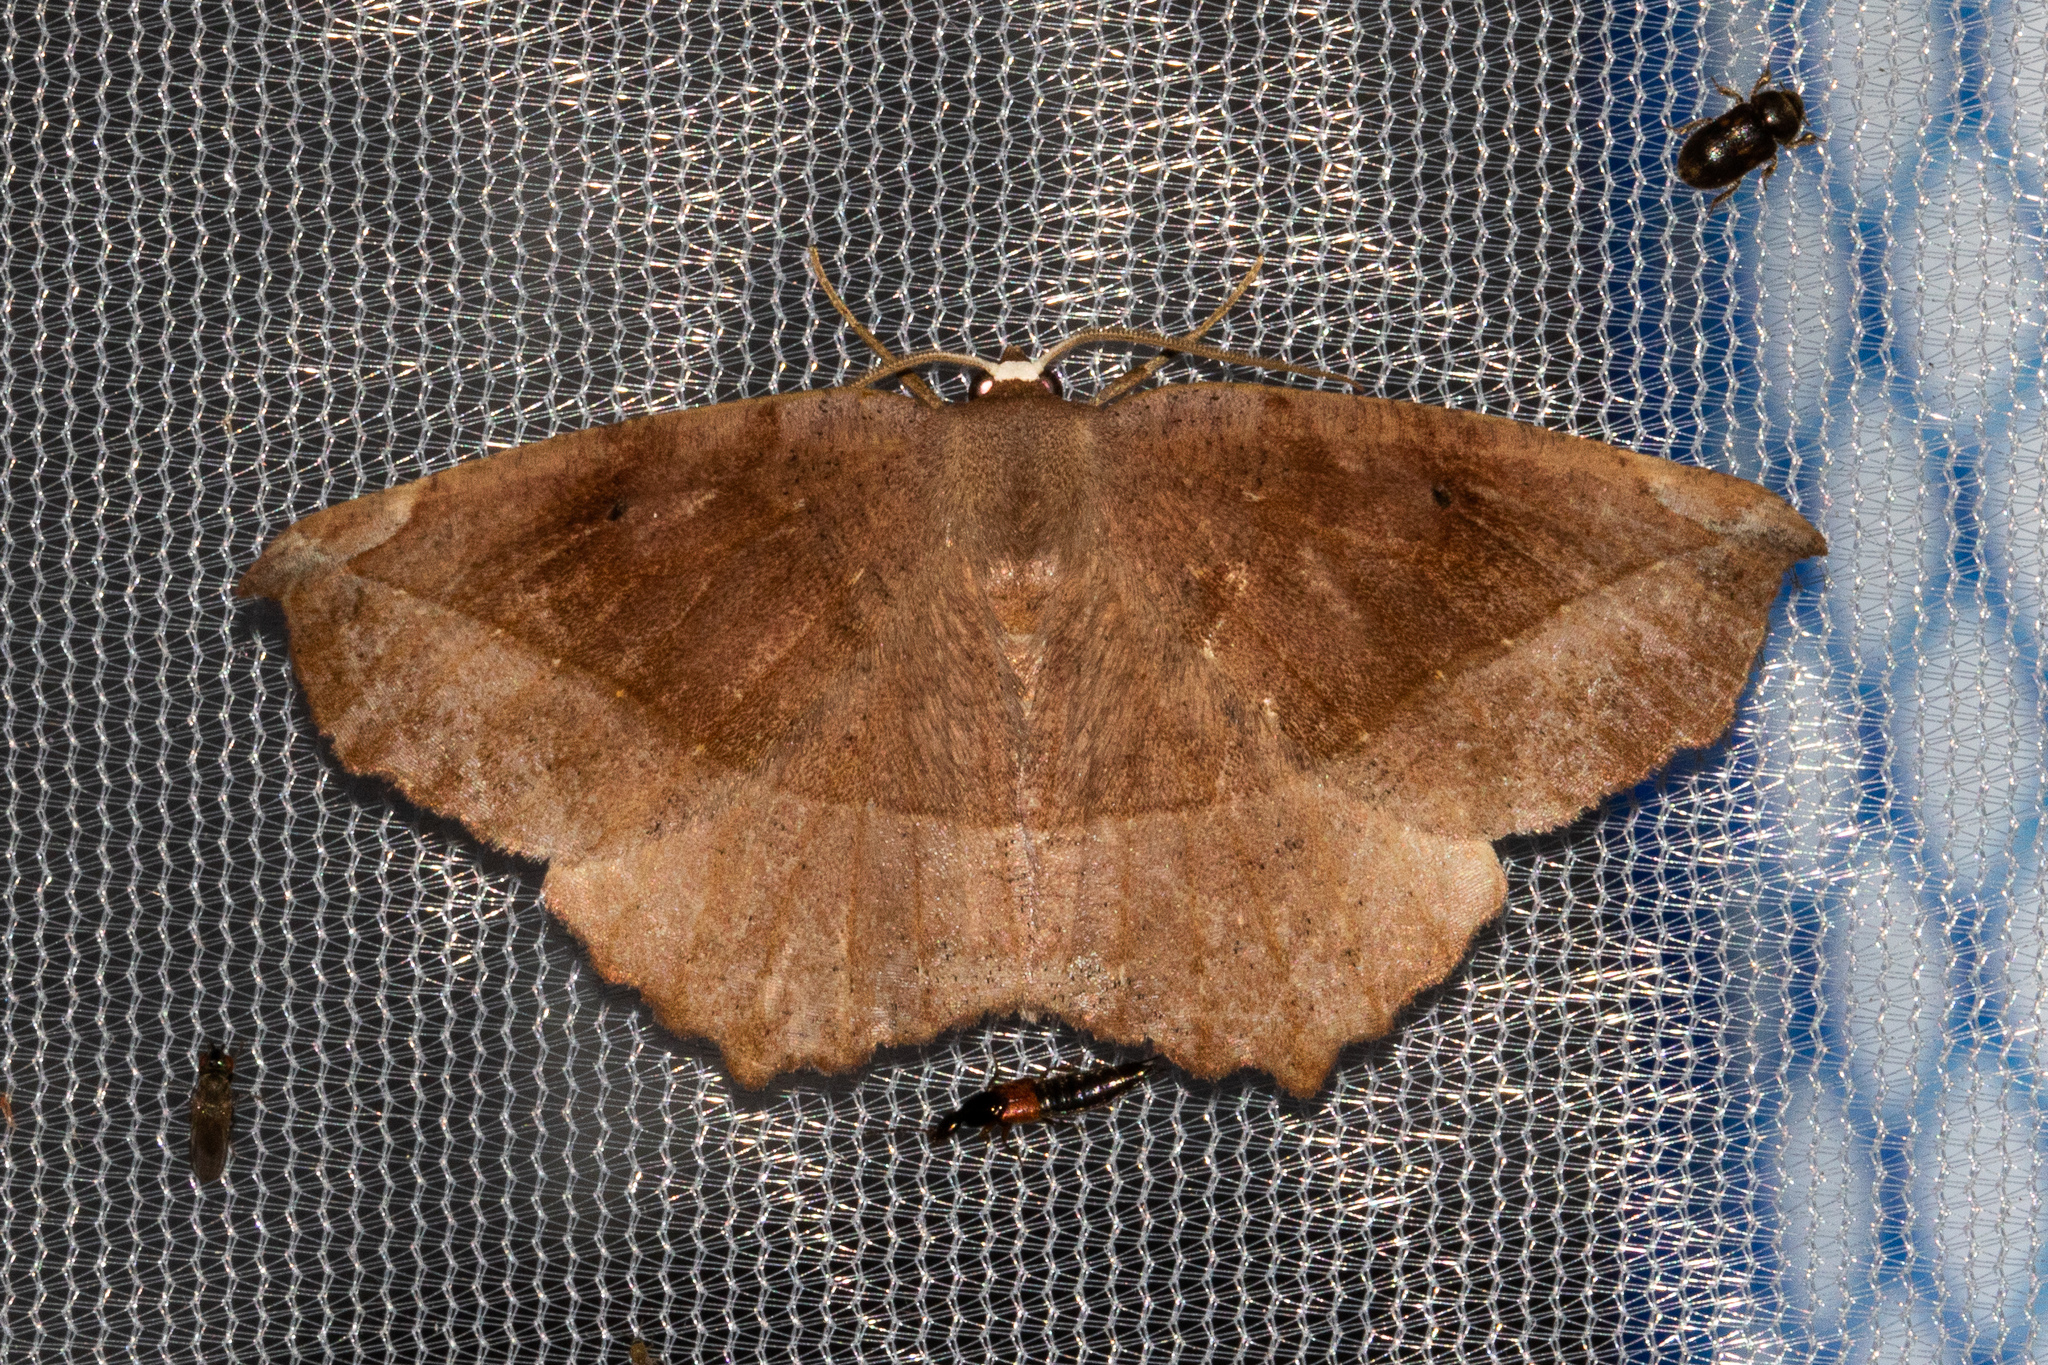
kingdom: Animalia
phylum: Arthropoda
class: Insecta
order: Lepidoptera
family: Geometridae
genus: Eutrapela
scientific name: Eutrapela clemataria
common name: Curved-toothed geometer
